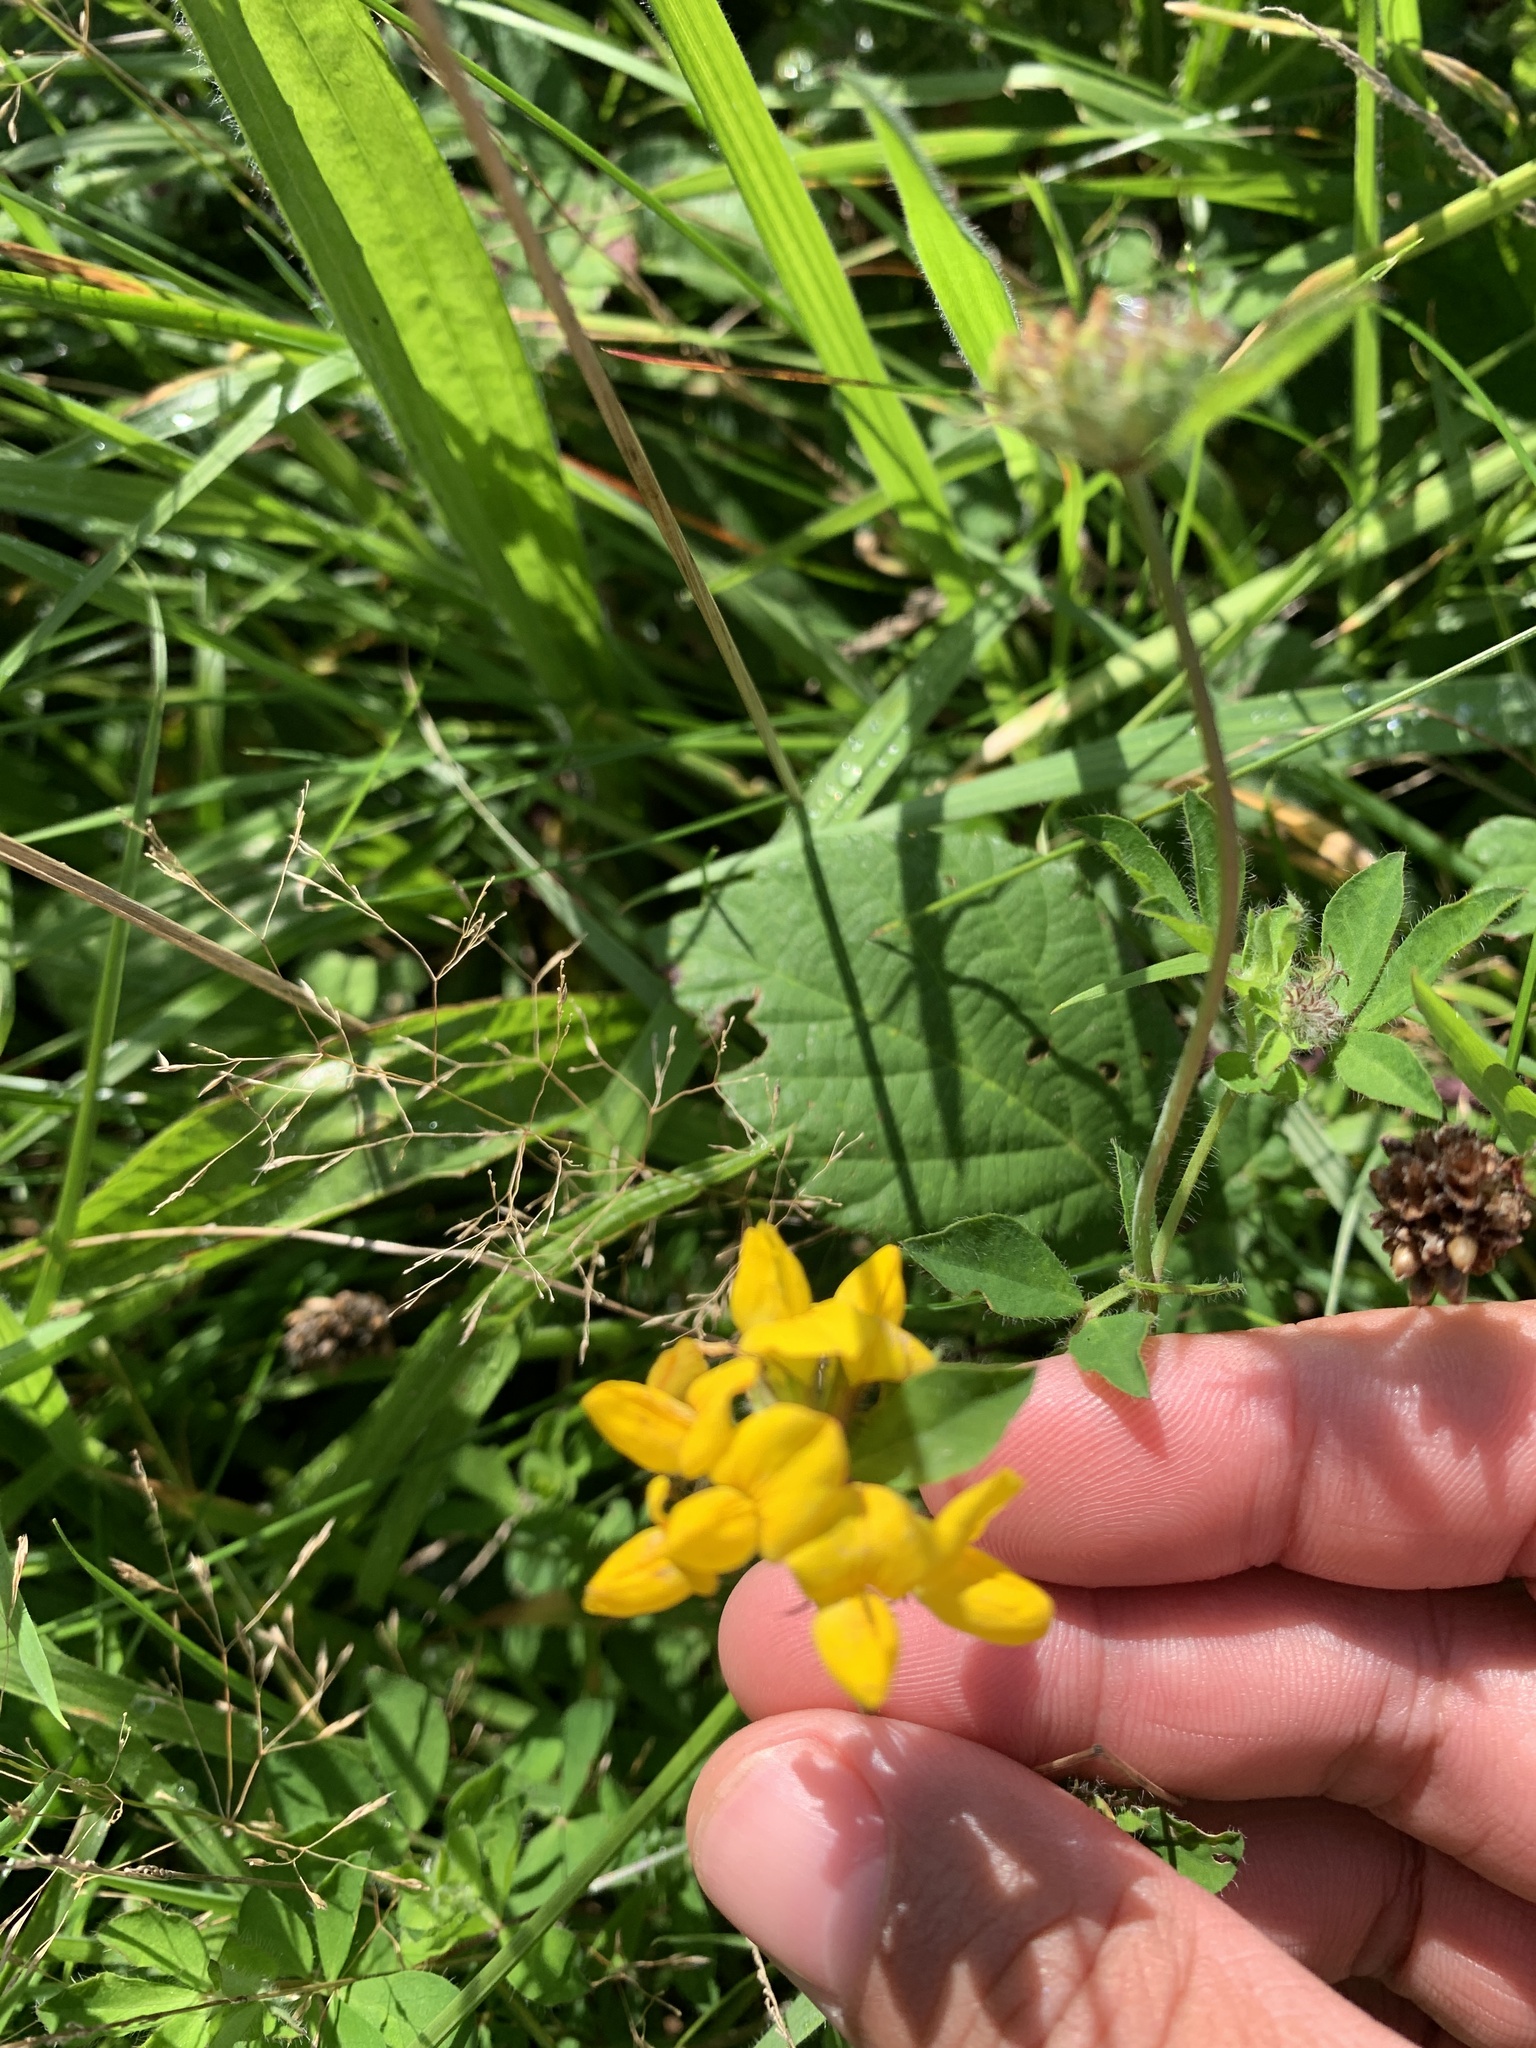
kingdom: Plantae
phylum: Tracheophyta
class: Magnoliopsida
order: Fabales
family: Fabaceae
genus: Lotus
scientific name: Lotus corniculatus
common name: Common bird's-foot-trefoil
